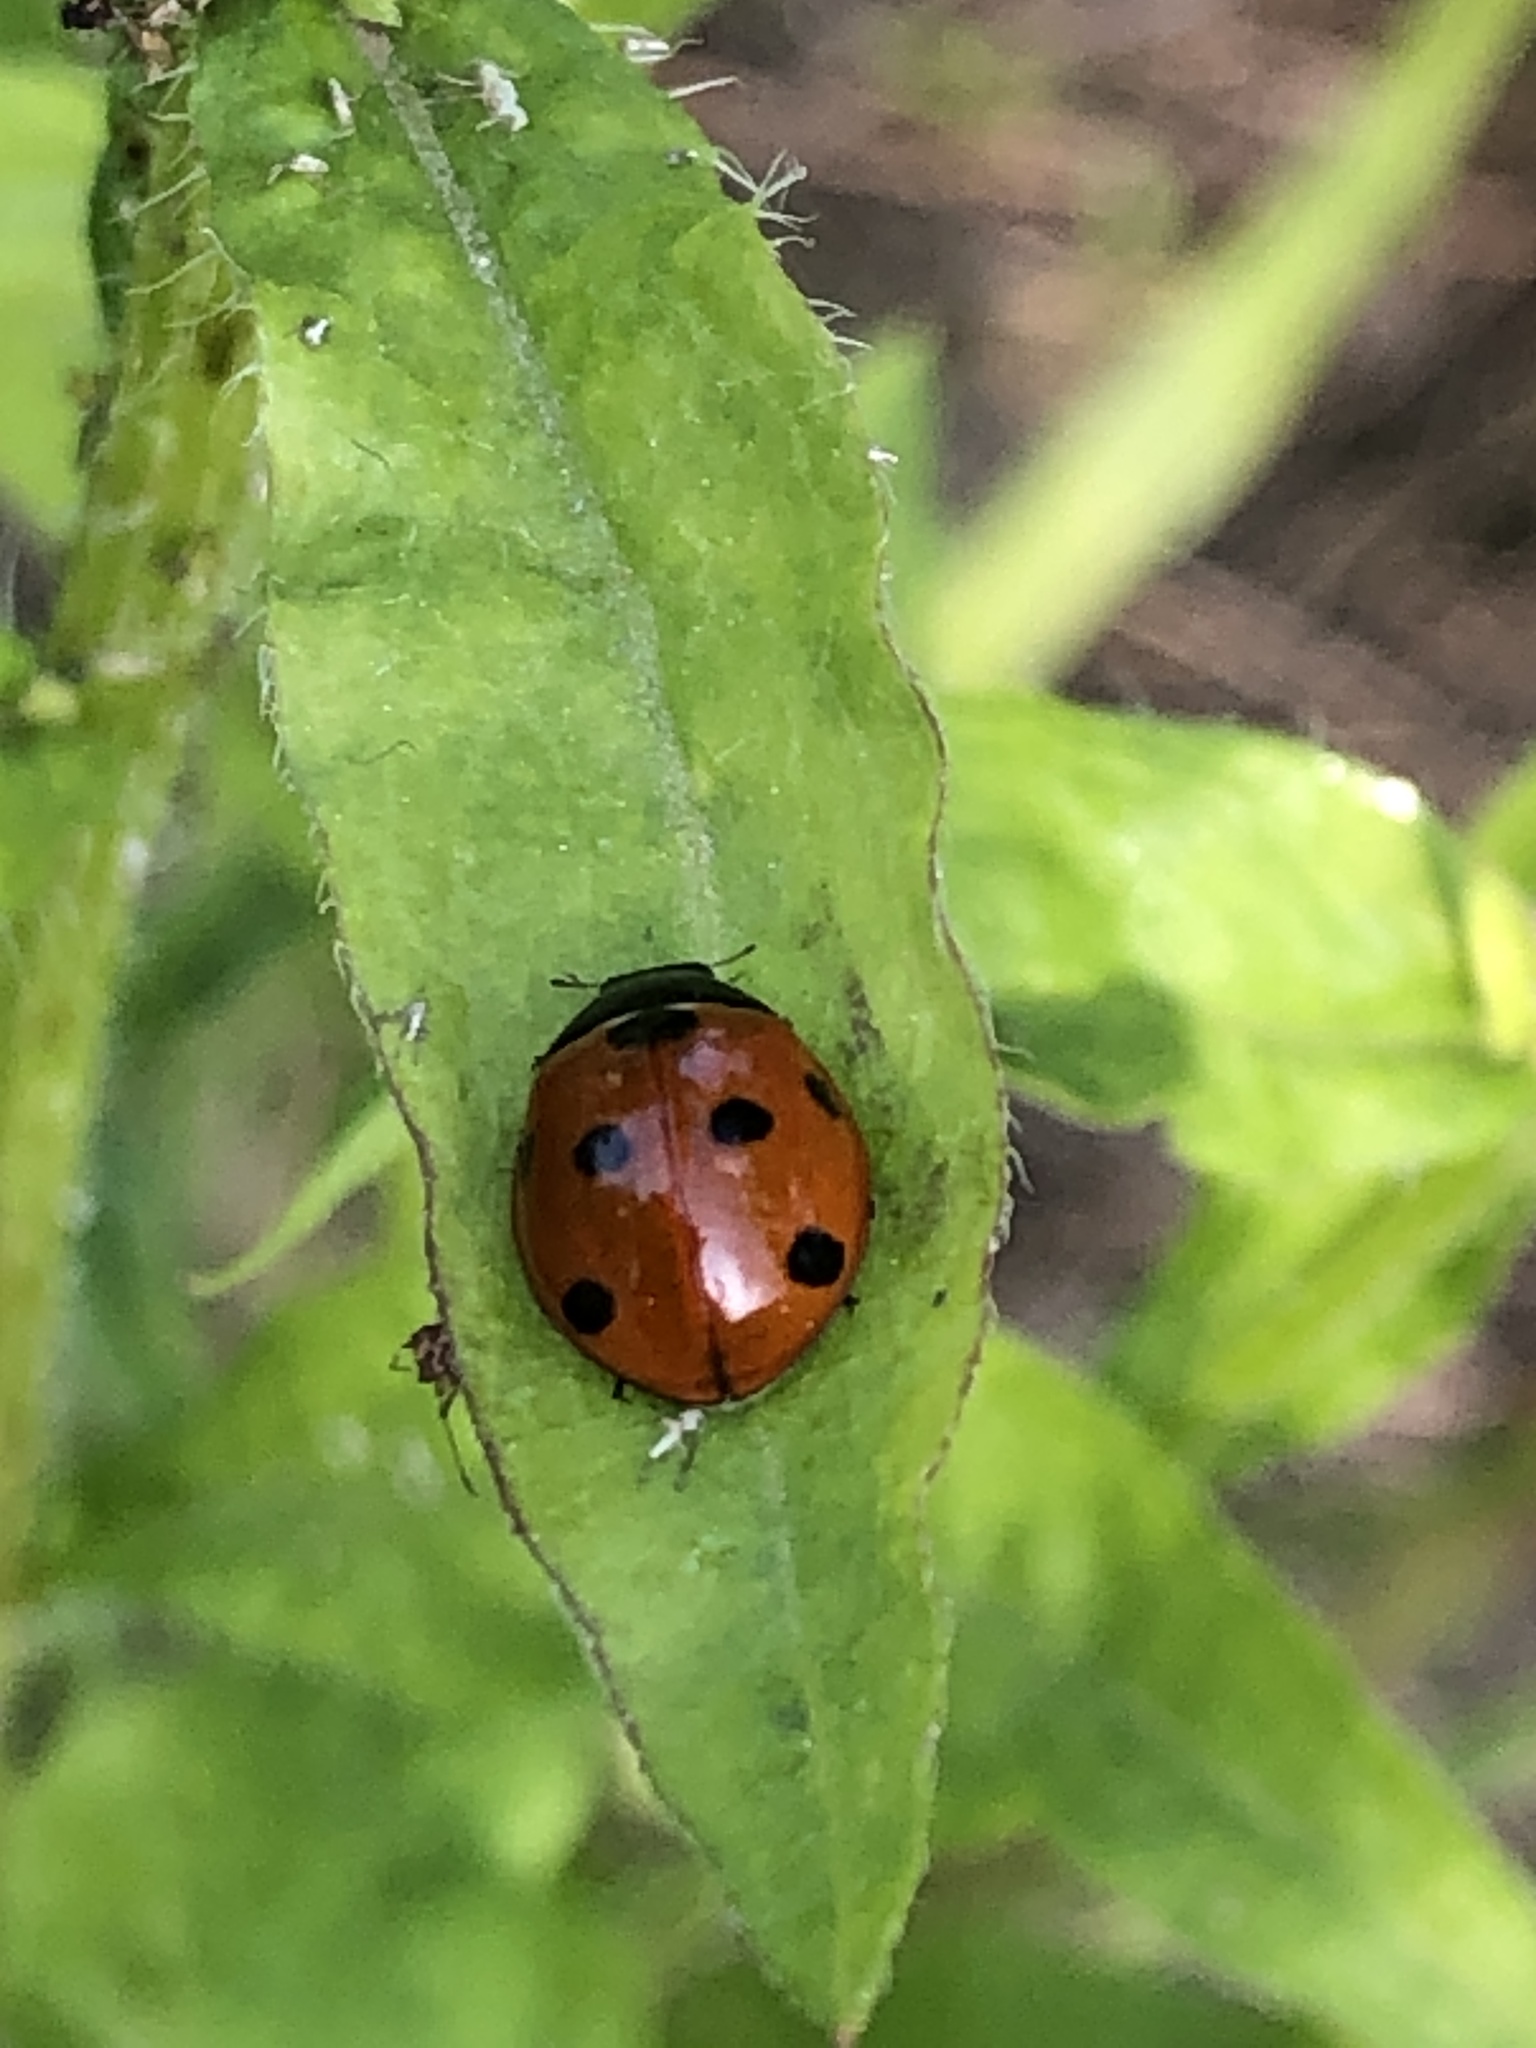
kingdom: Animalia
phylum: Arthropoda
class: Insecta
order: Coleoptera
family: Coccinellidae
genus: Coccinella
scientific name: Coccinella septempunctata
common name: Sevenspotted lady beetle
